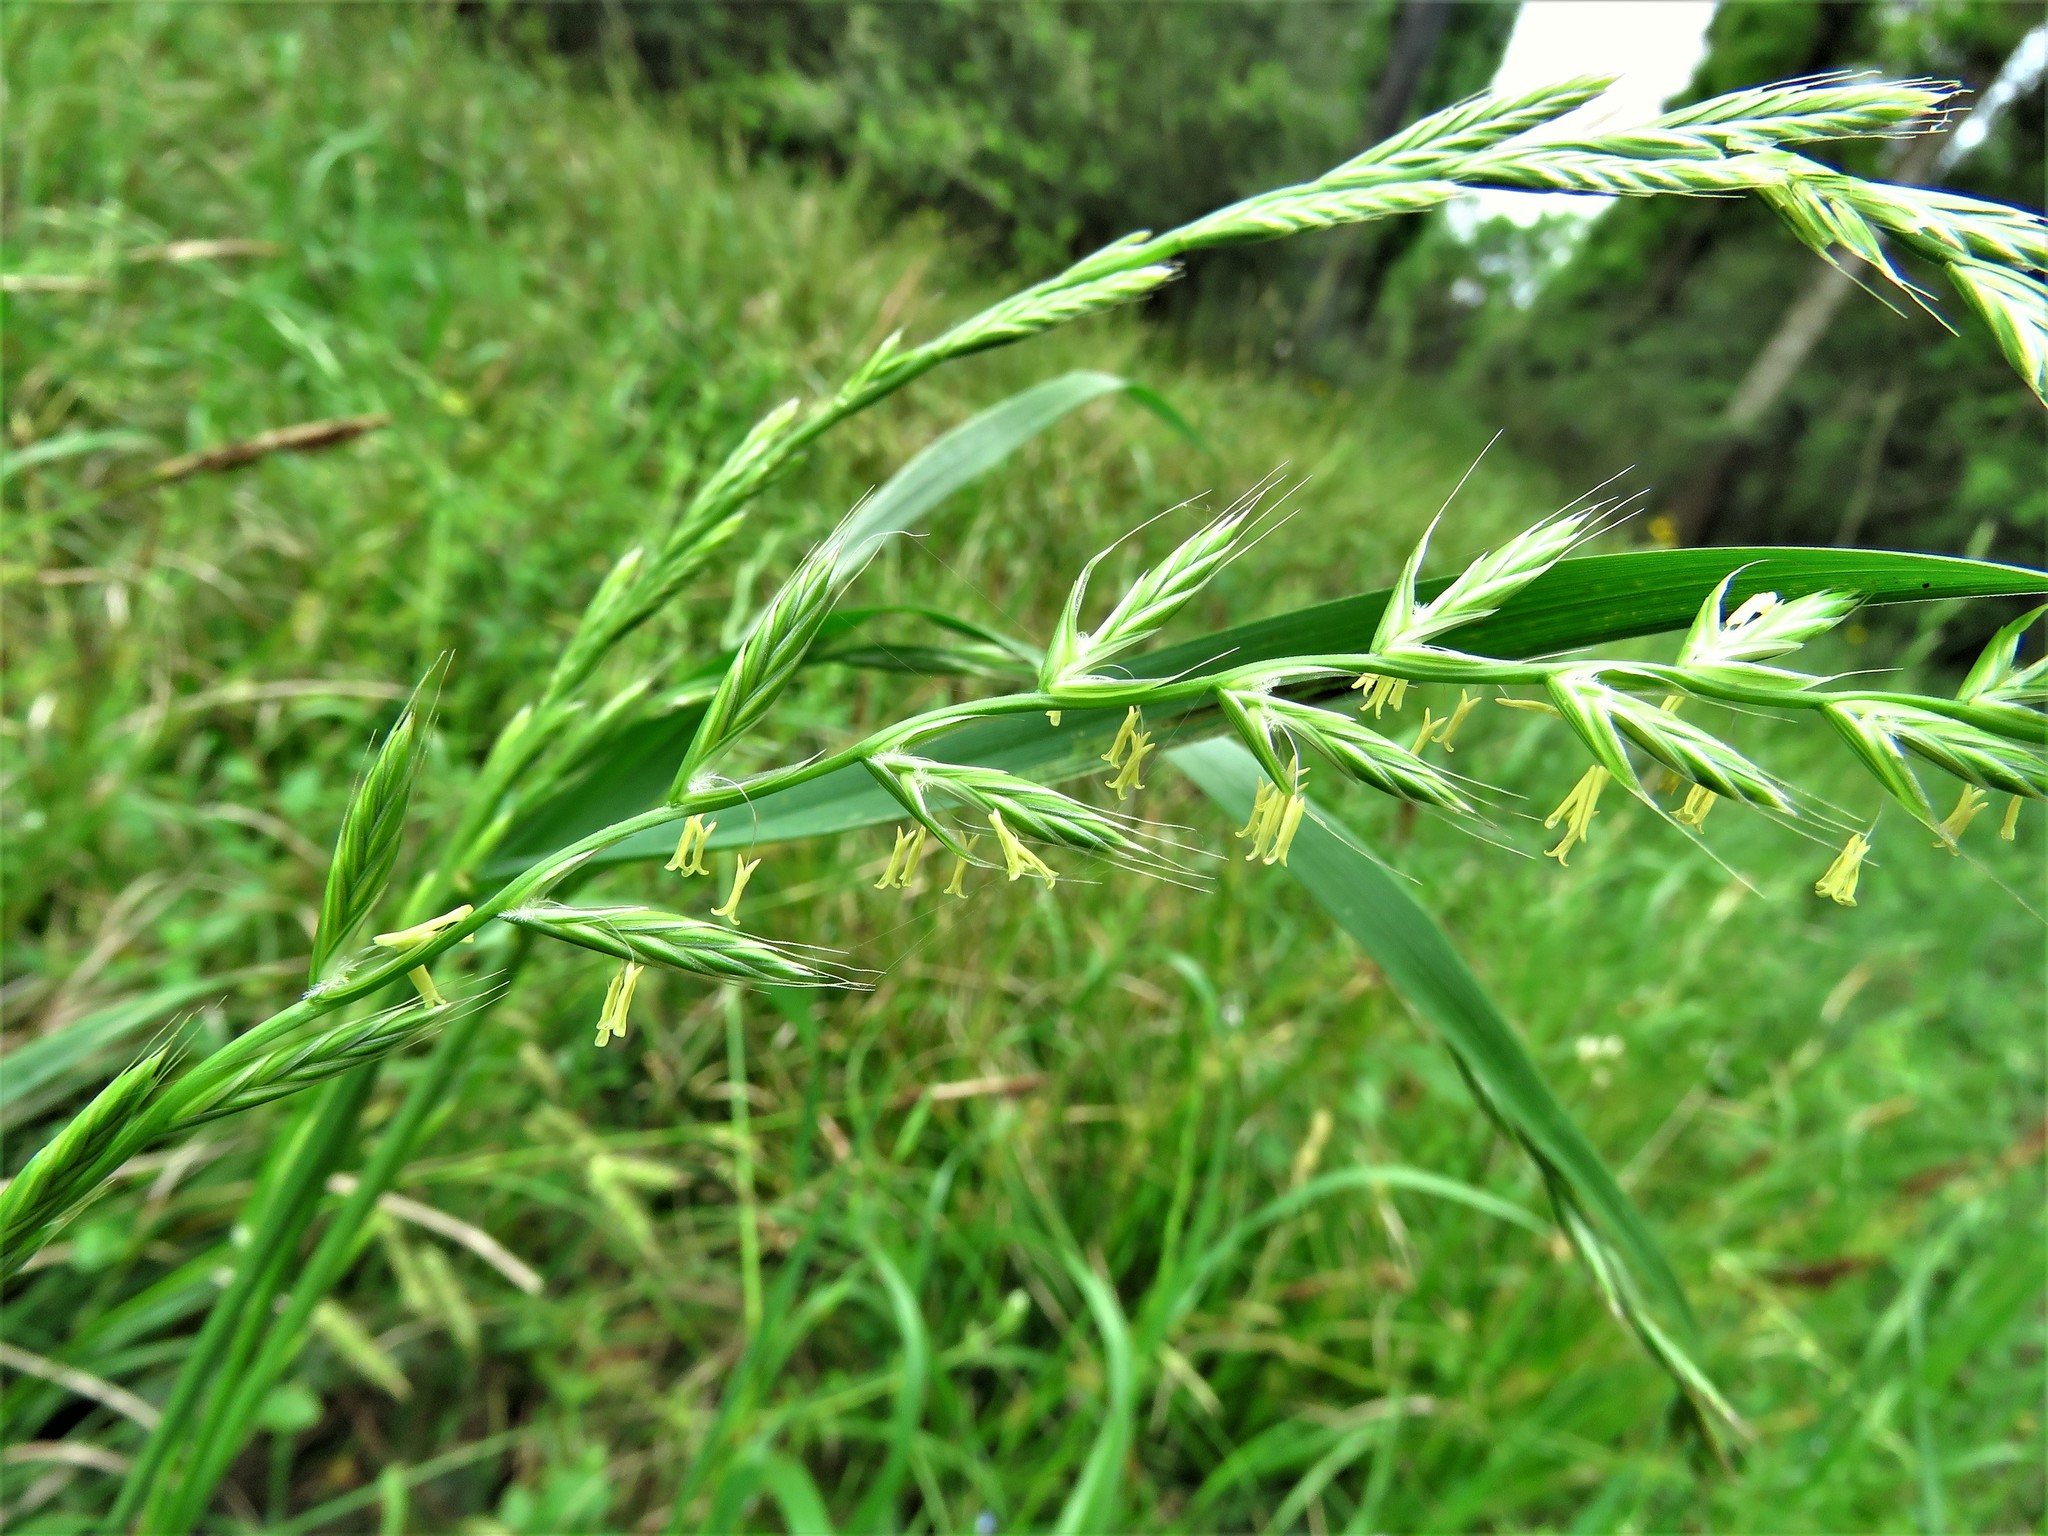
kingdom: Plantae
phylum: Tracheophyta
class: Liliopsida
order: Poales
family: Poaceae
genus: Lolium
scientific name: Lolium perenne
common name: Perennial ryegrass
